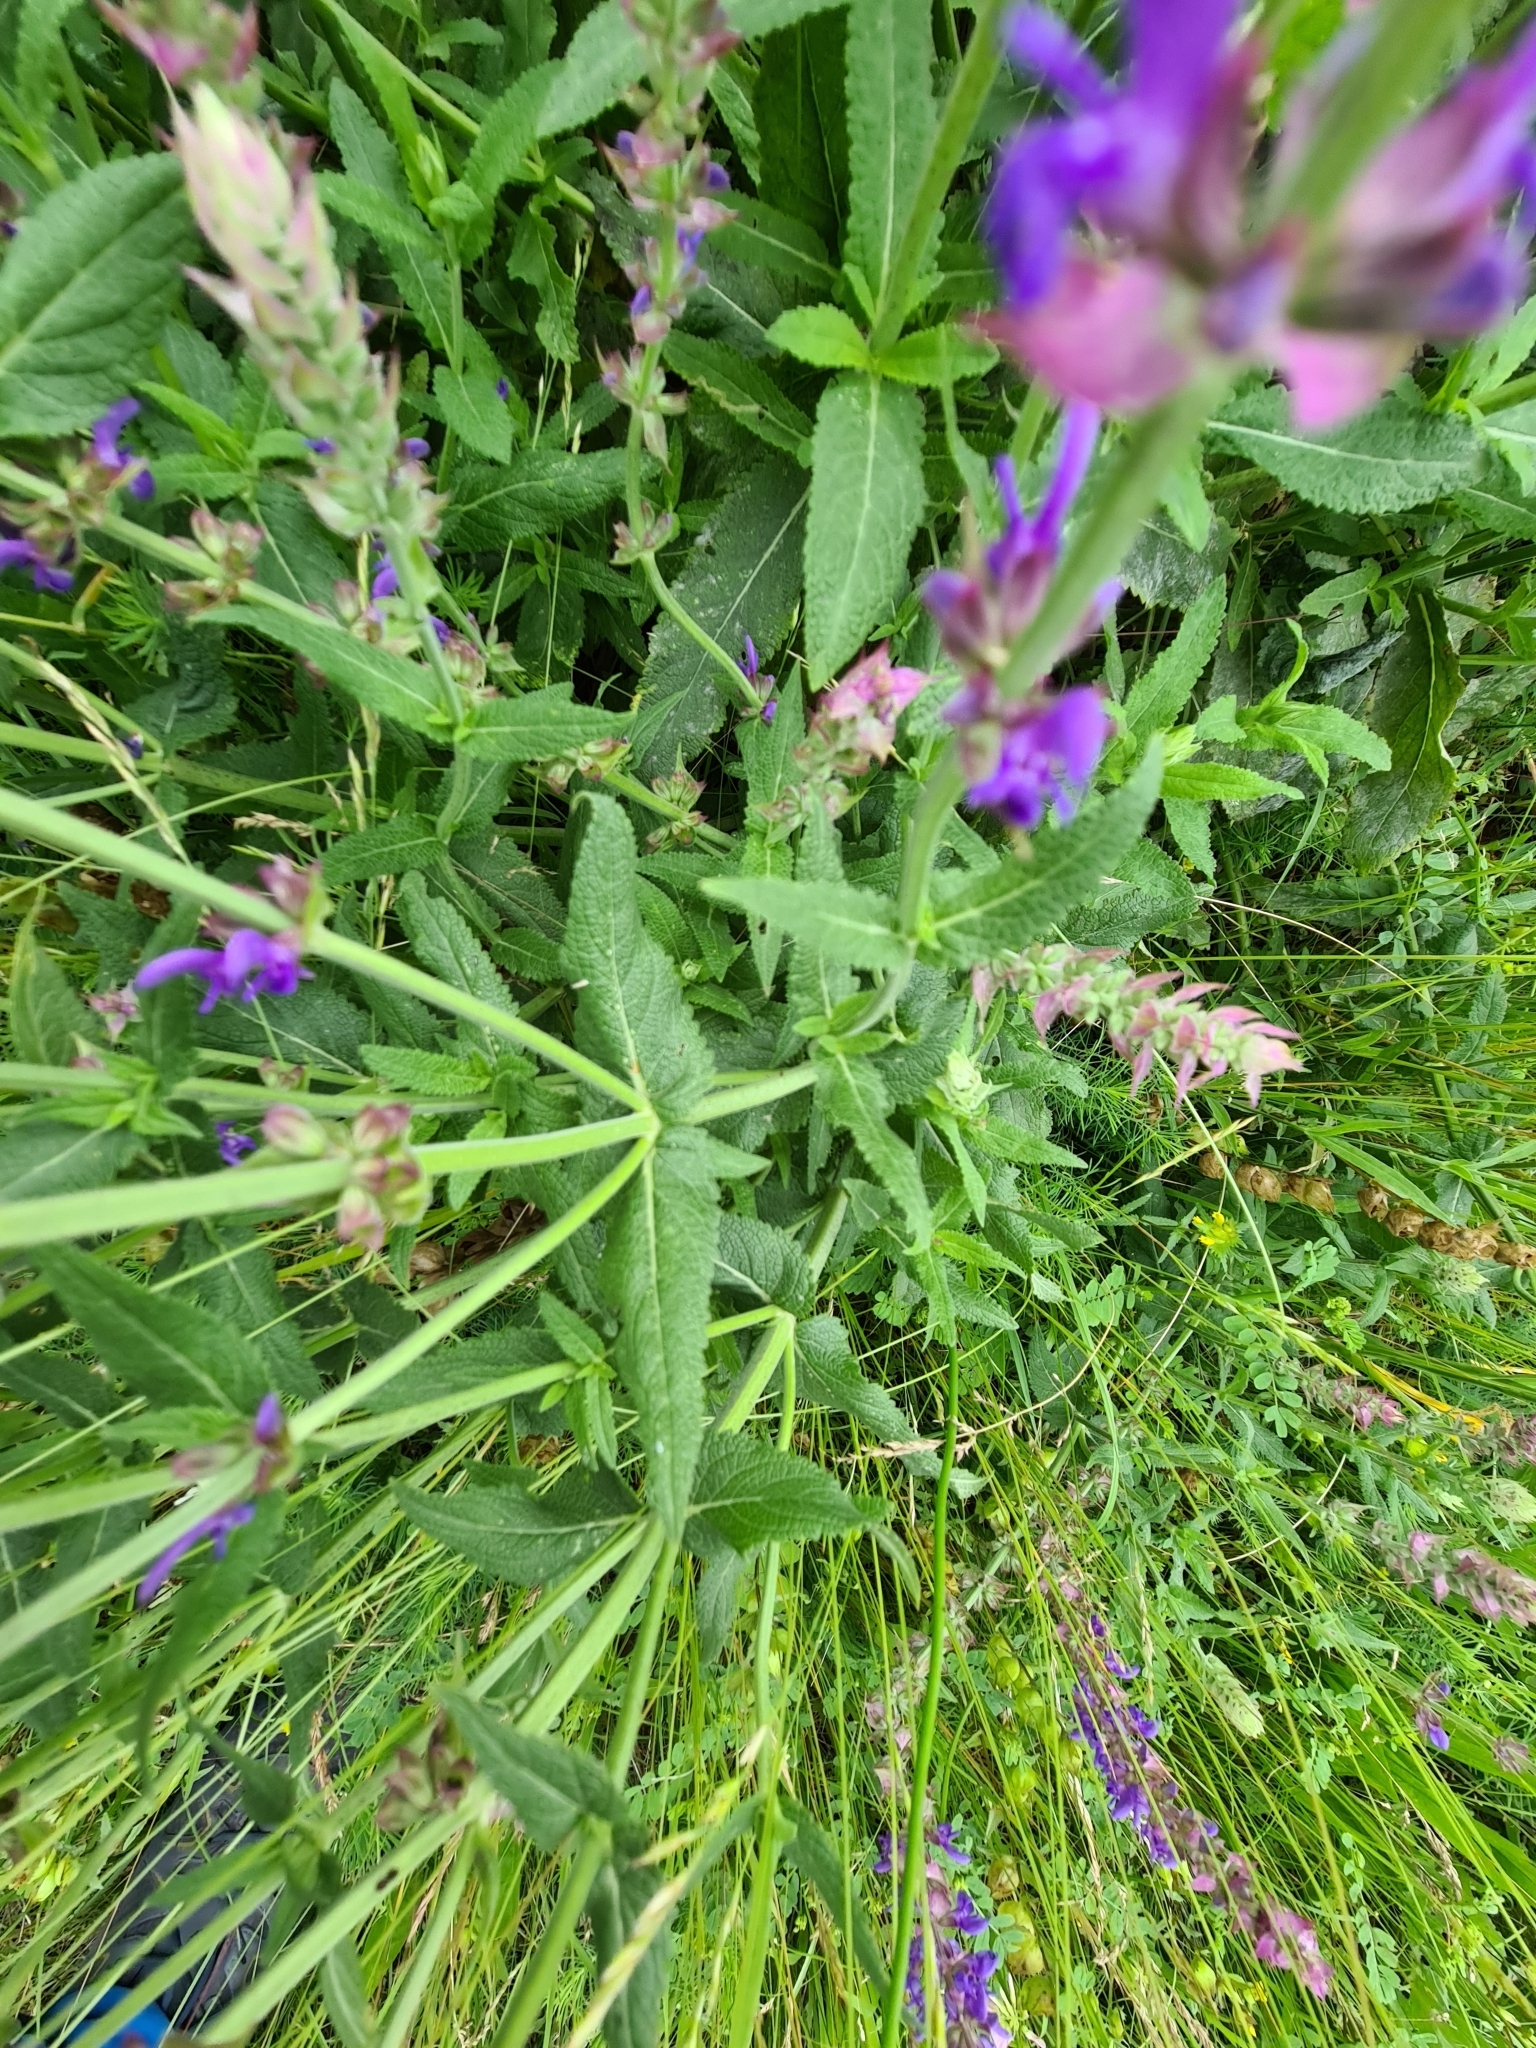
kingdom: Plantae
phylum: Tracheophyta
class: Magnoliopsida
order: Lamiales
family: Lamiaceae
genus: Salvia
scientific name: Salvia pratensis
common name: Meadow sage
